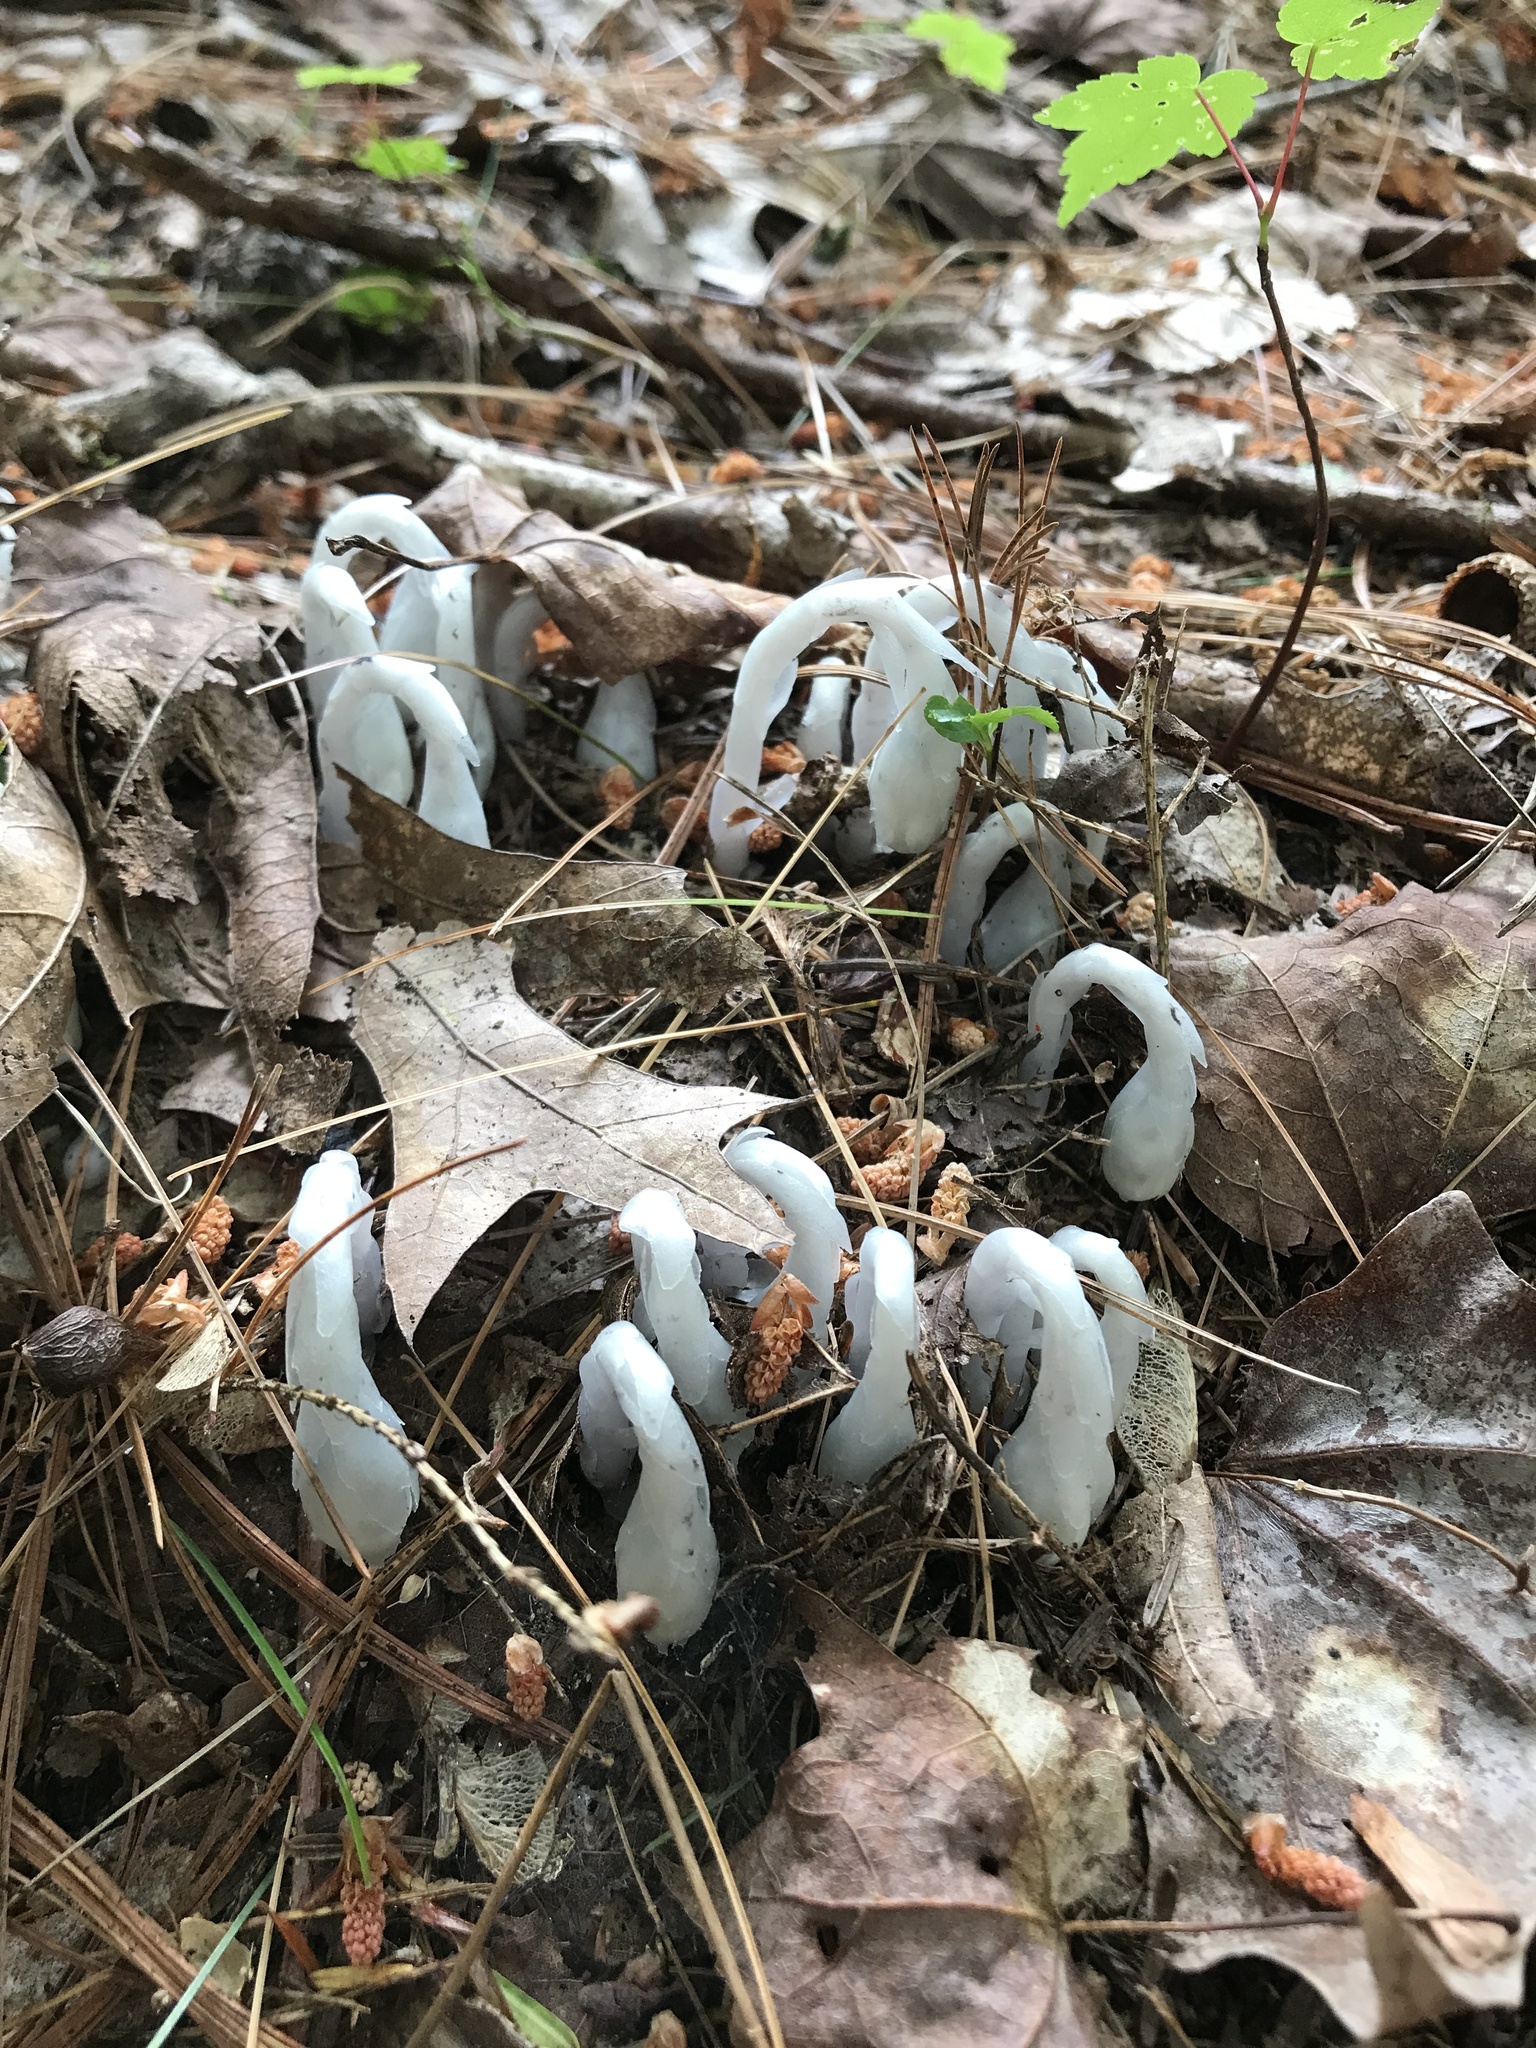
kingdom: Plantae
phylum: Tracheophyta
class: Magnoliopsida
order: Ericales
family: Ericaceae
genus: Monotropa
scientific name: Monotropa uniflora
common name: Convulsion root
